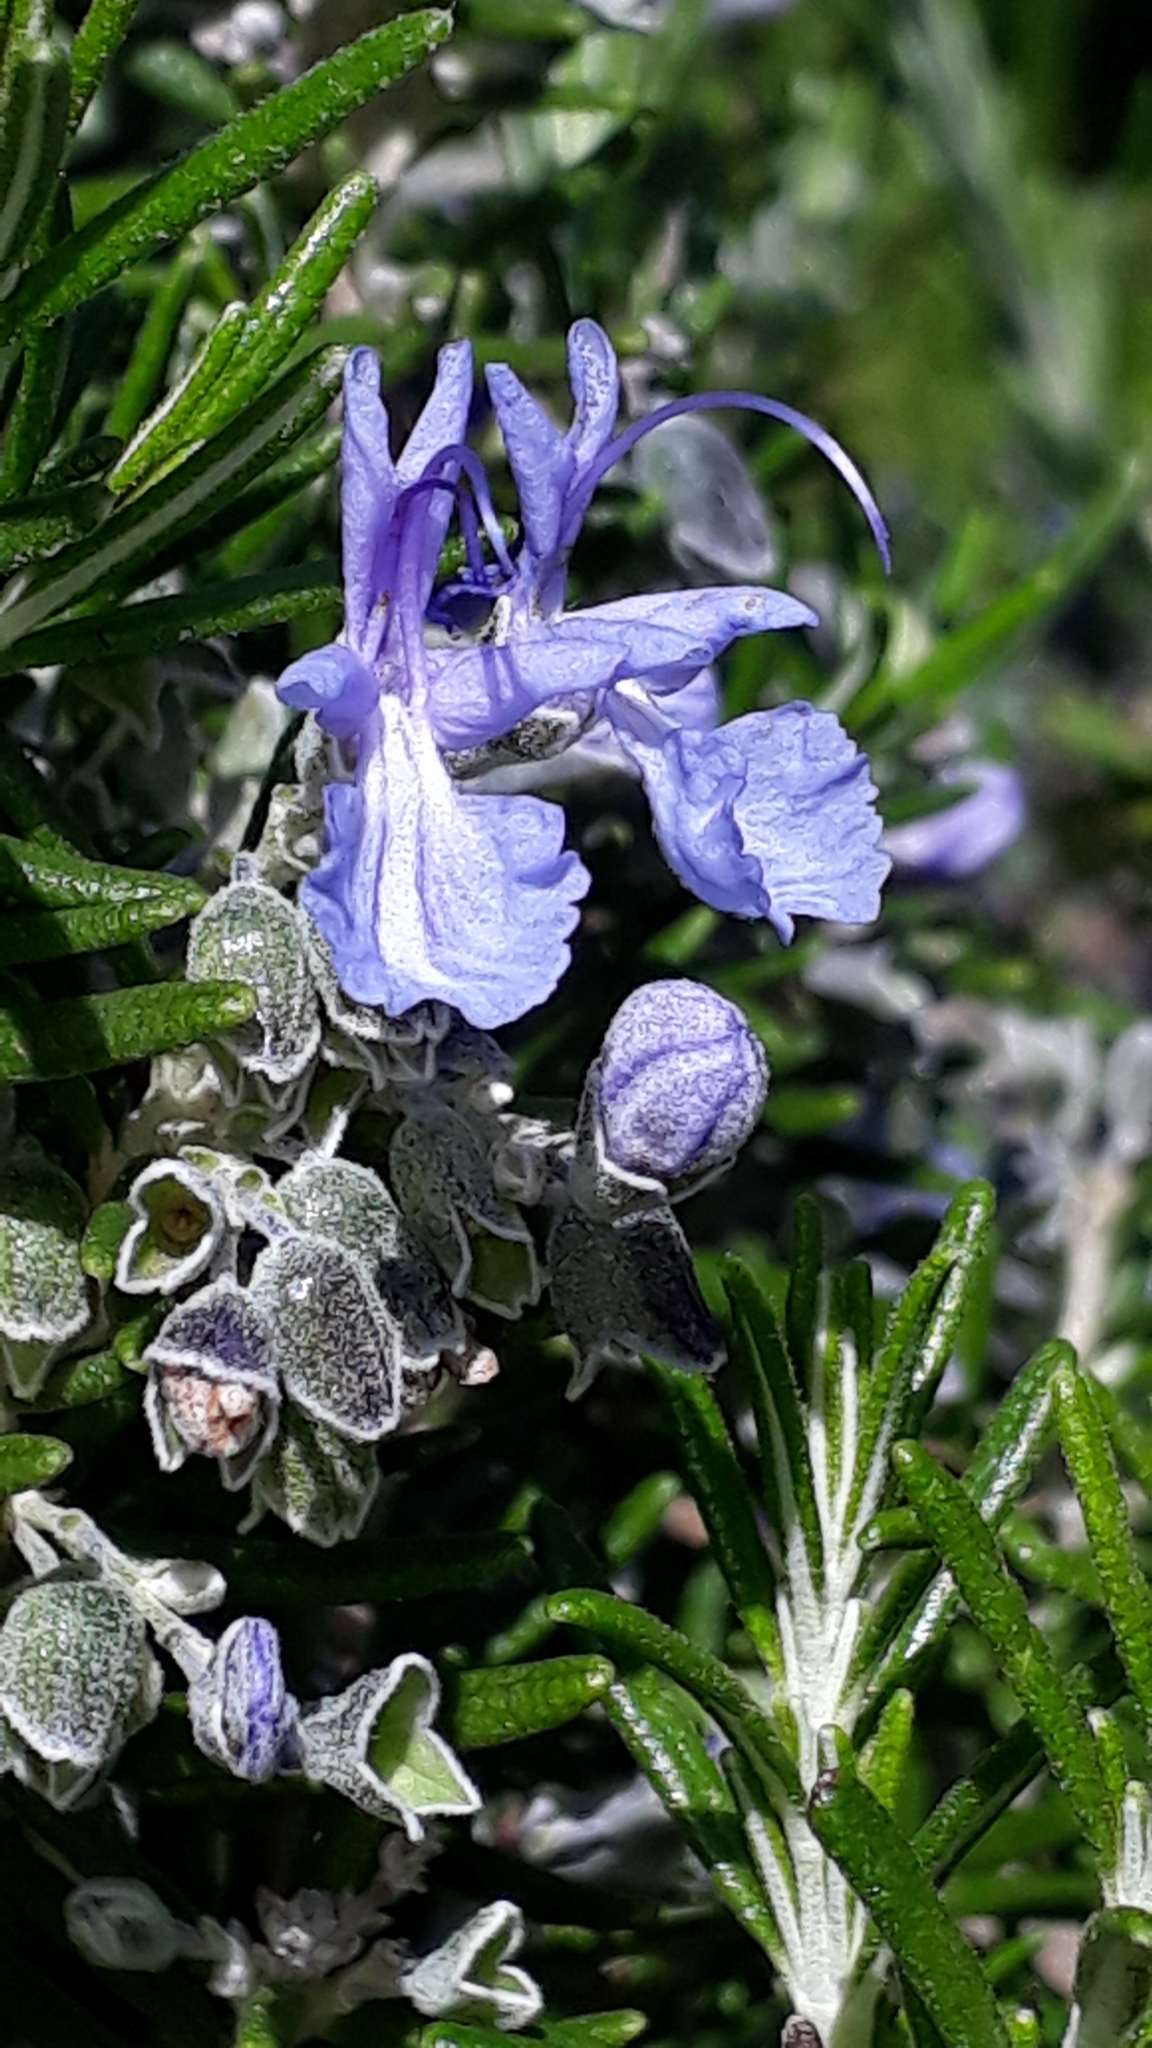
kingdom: Plantae
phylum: Tracheophyta
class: Magnoliopsida
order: Lamiales
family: Lamiaceae
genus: Salvia
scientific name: Salvia rosmarinus
